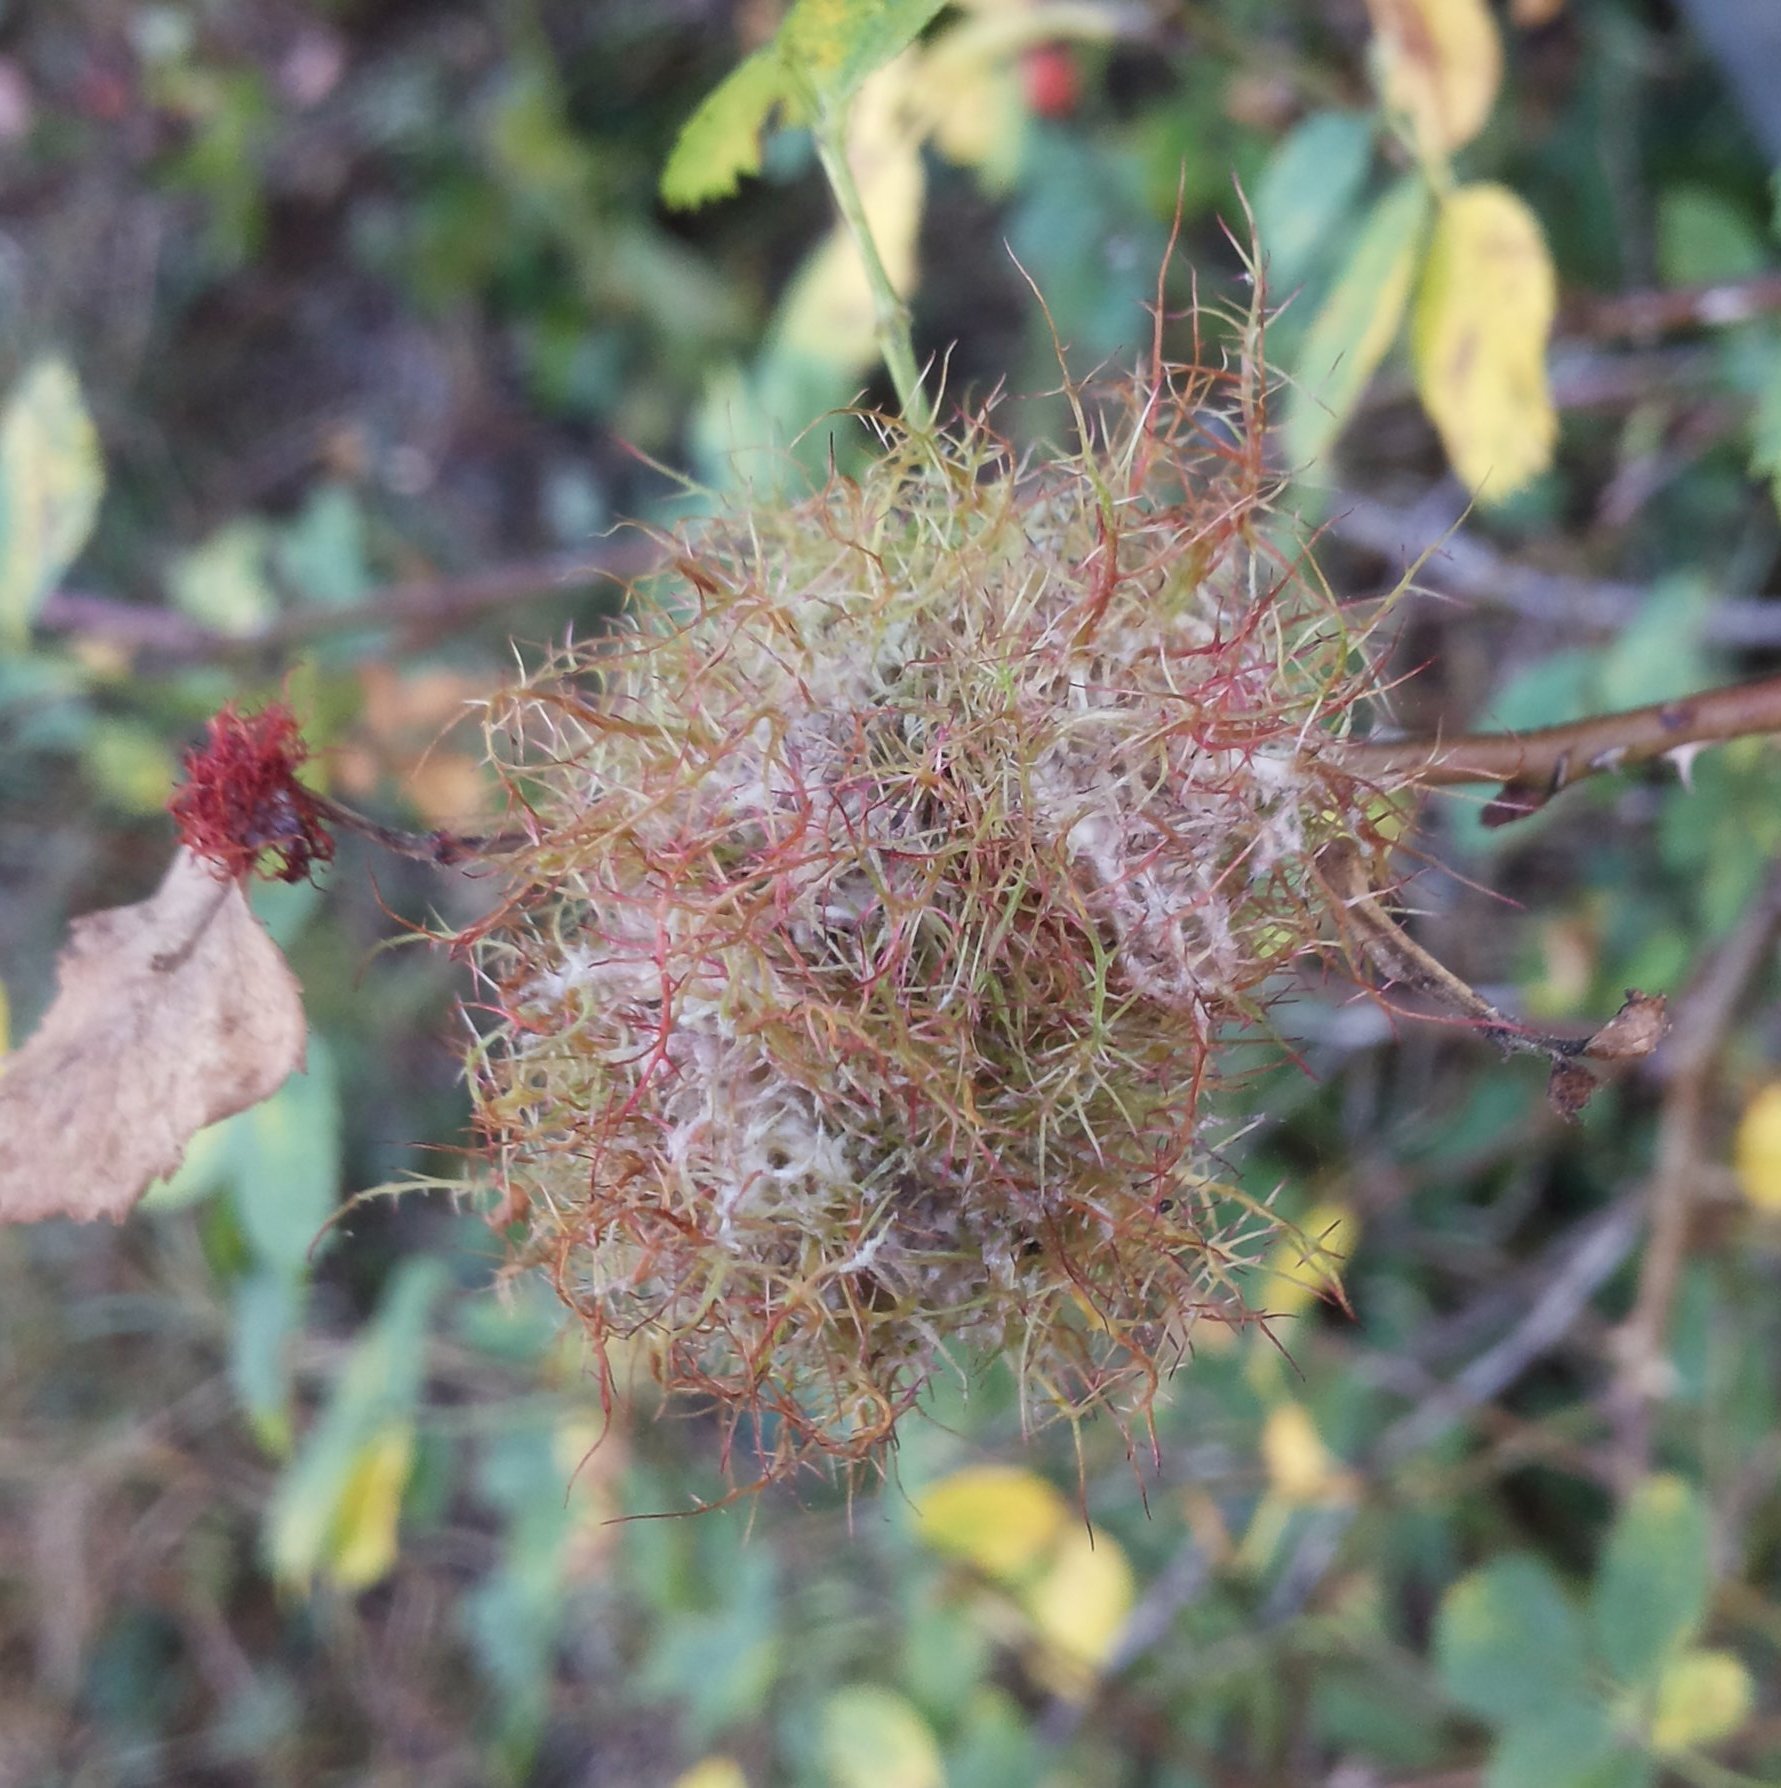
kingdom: Animalia
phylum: Arthropoda
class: Insecta
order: Hymenoptera
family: Cynipidae
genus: Diplolepis
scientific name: Diplolepis rosae
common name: Bedeguar gall
